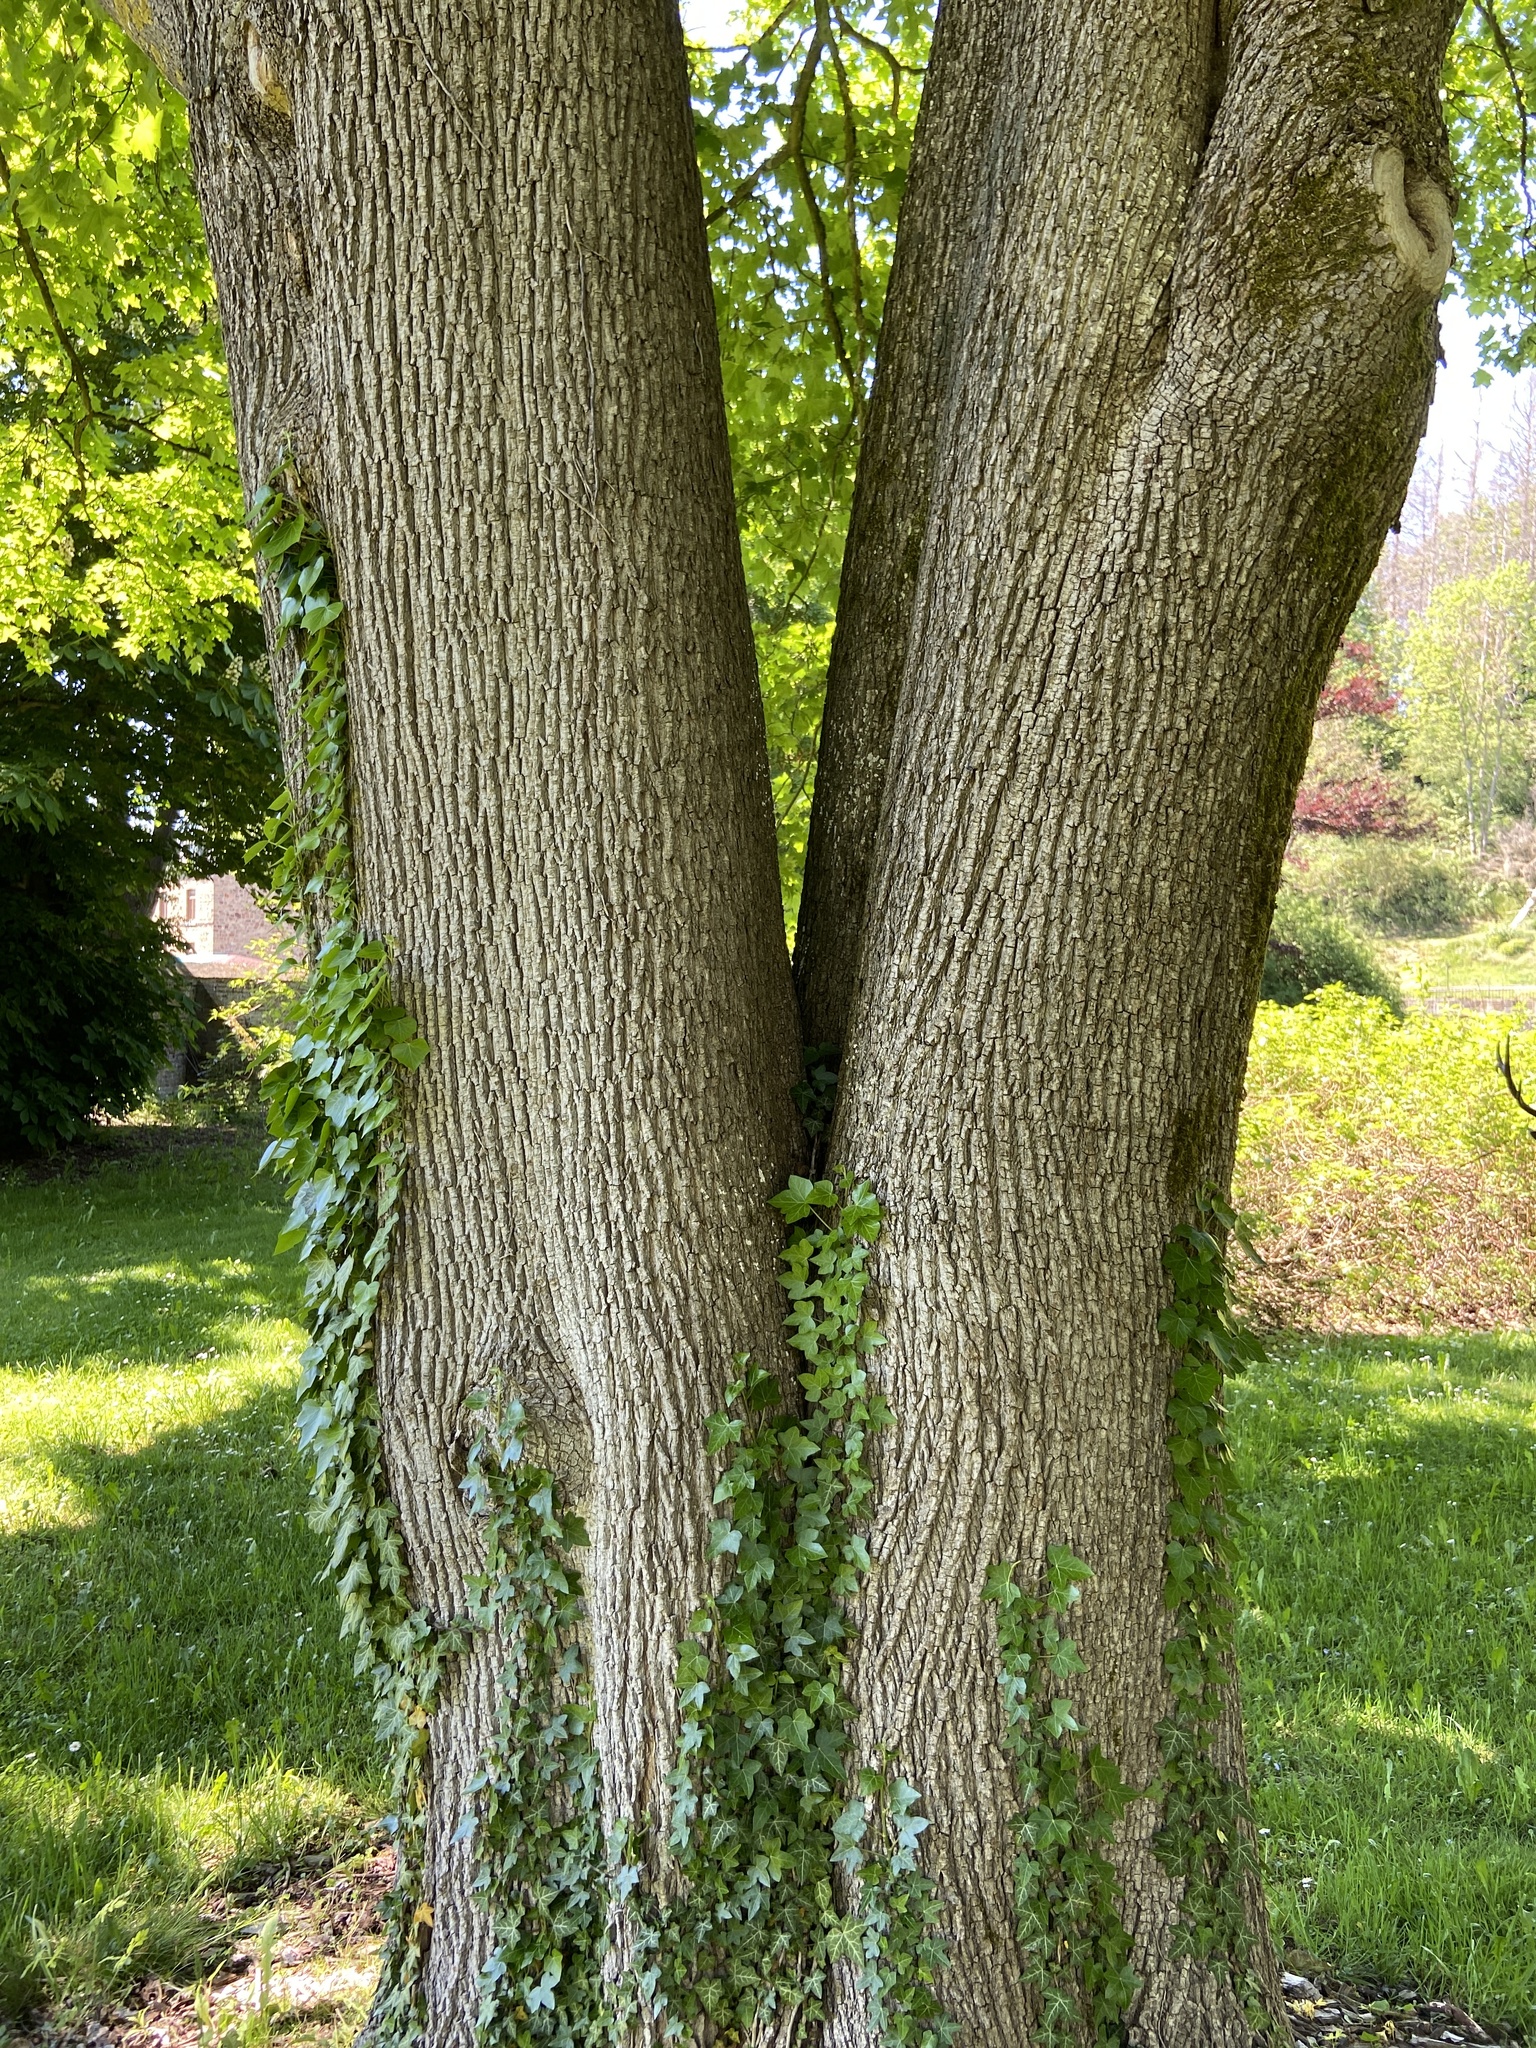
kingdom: Plantae
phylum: Tracheophyta
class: Magnoliopsida
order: Sapindales
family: Sapindaceae
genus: Acer
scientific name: Acer platanoides
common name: Norway maple
